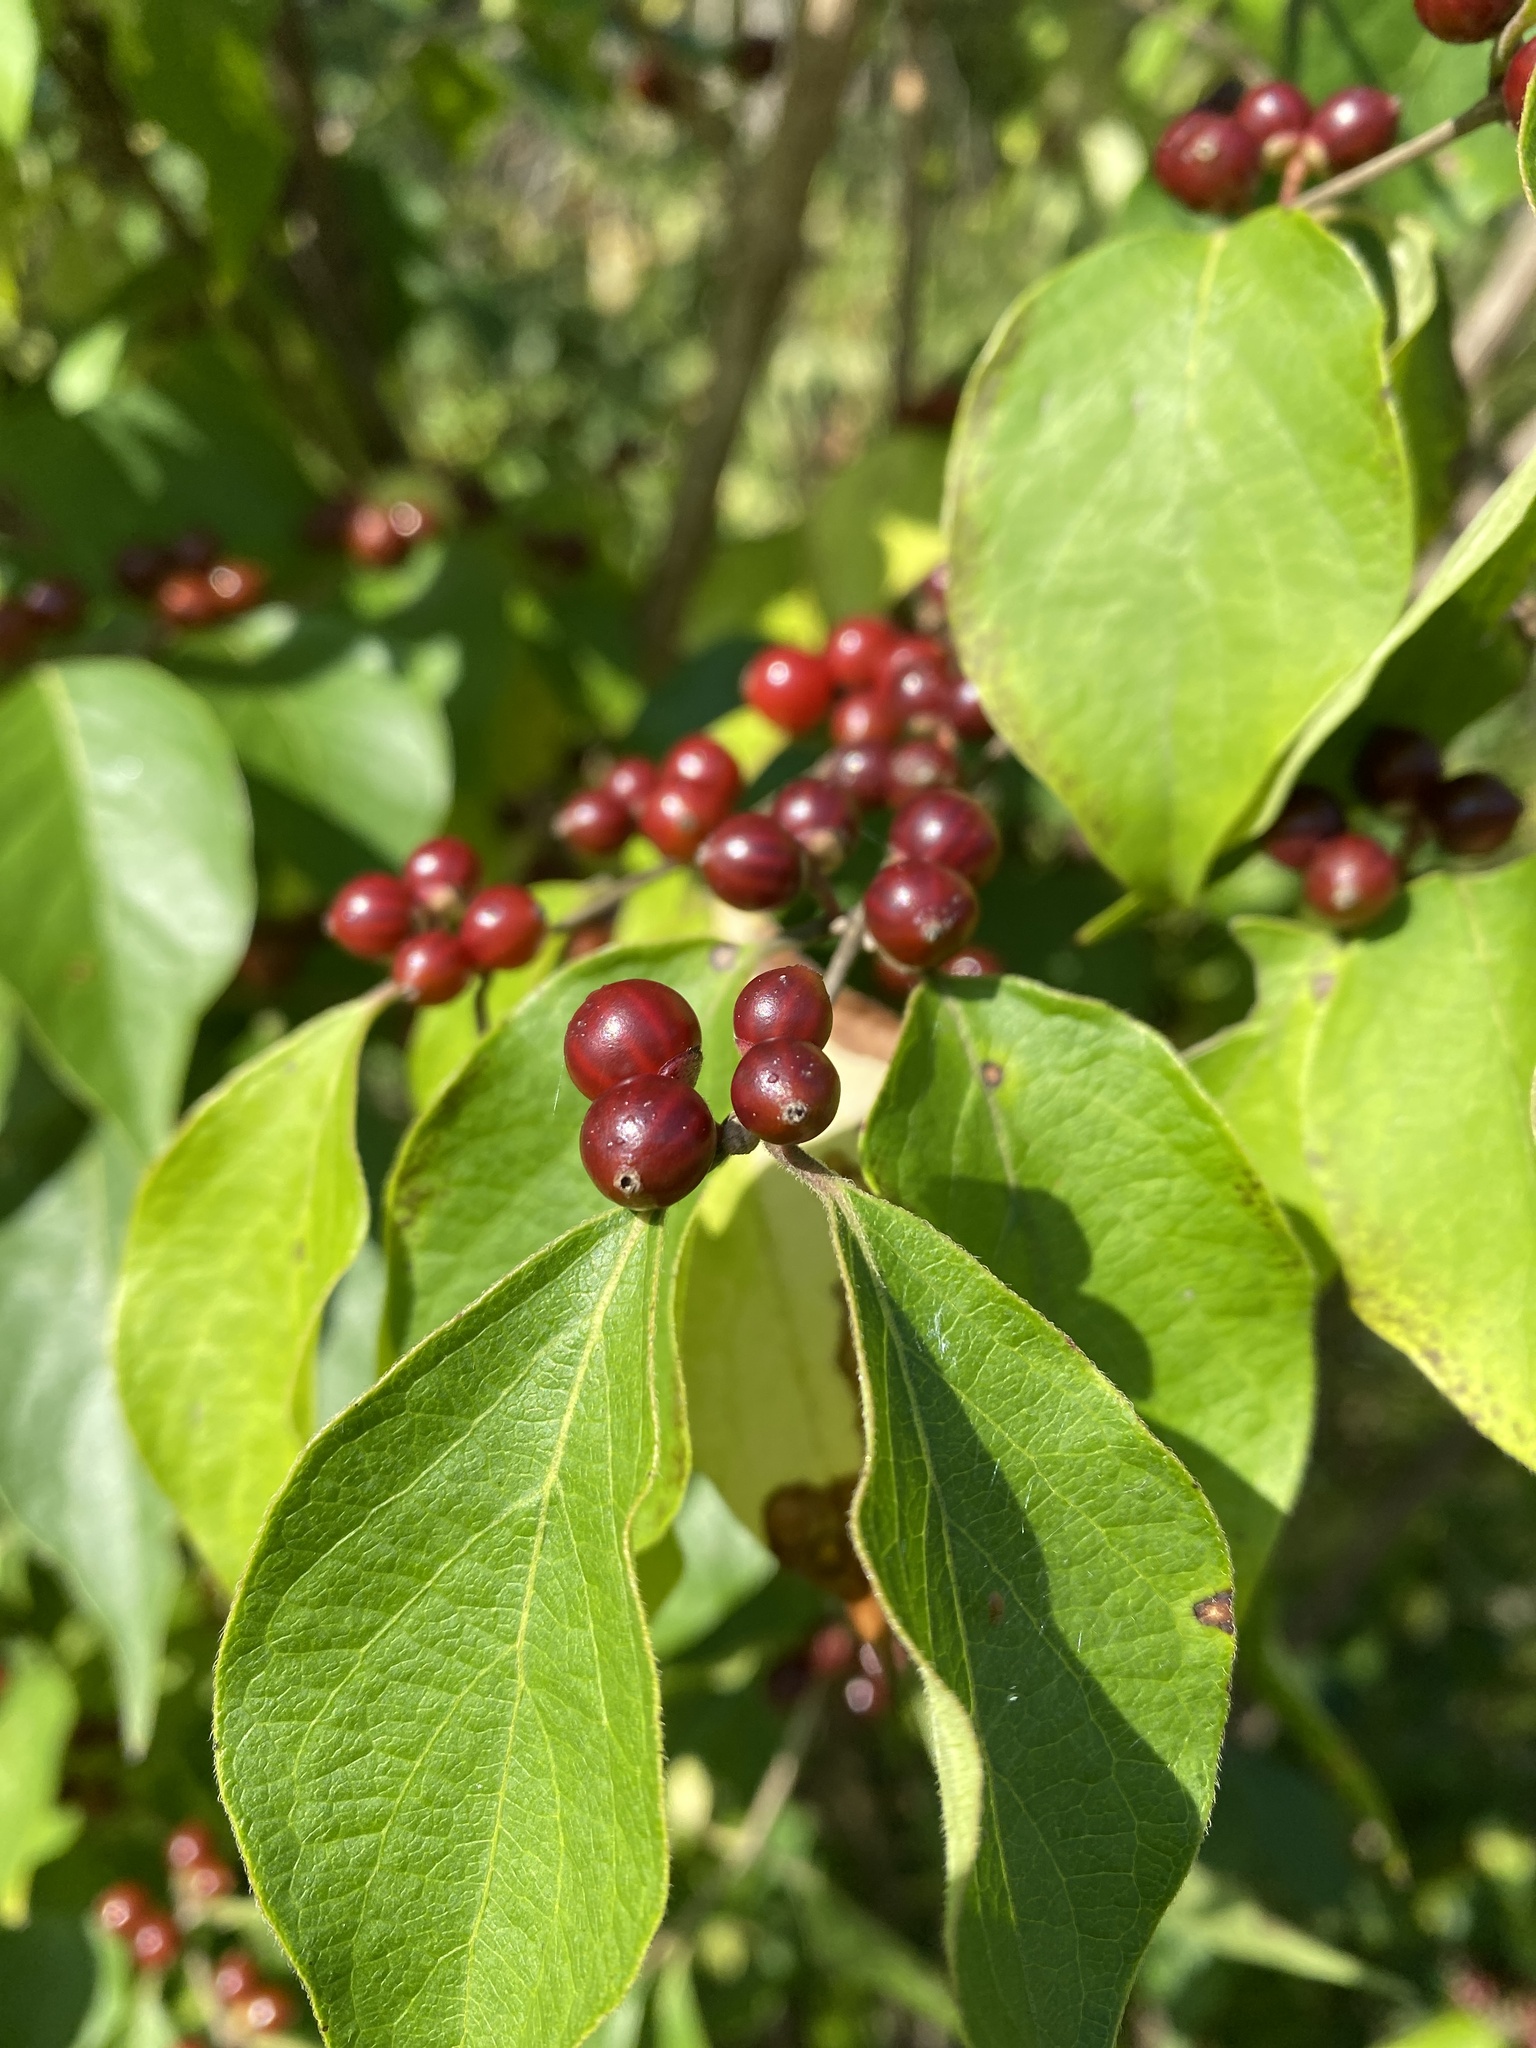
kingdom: Plantae
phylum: Tracheophyta
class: Magnoliopsida
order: Dipsacales
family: Caprifoliaceae
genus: Lonicera
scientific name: Lonicera maackii
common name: Amur honeysuckle
